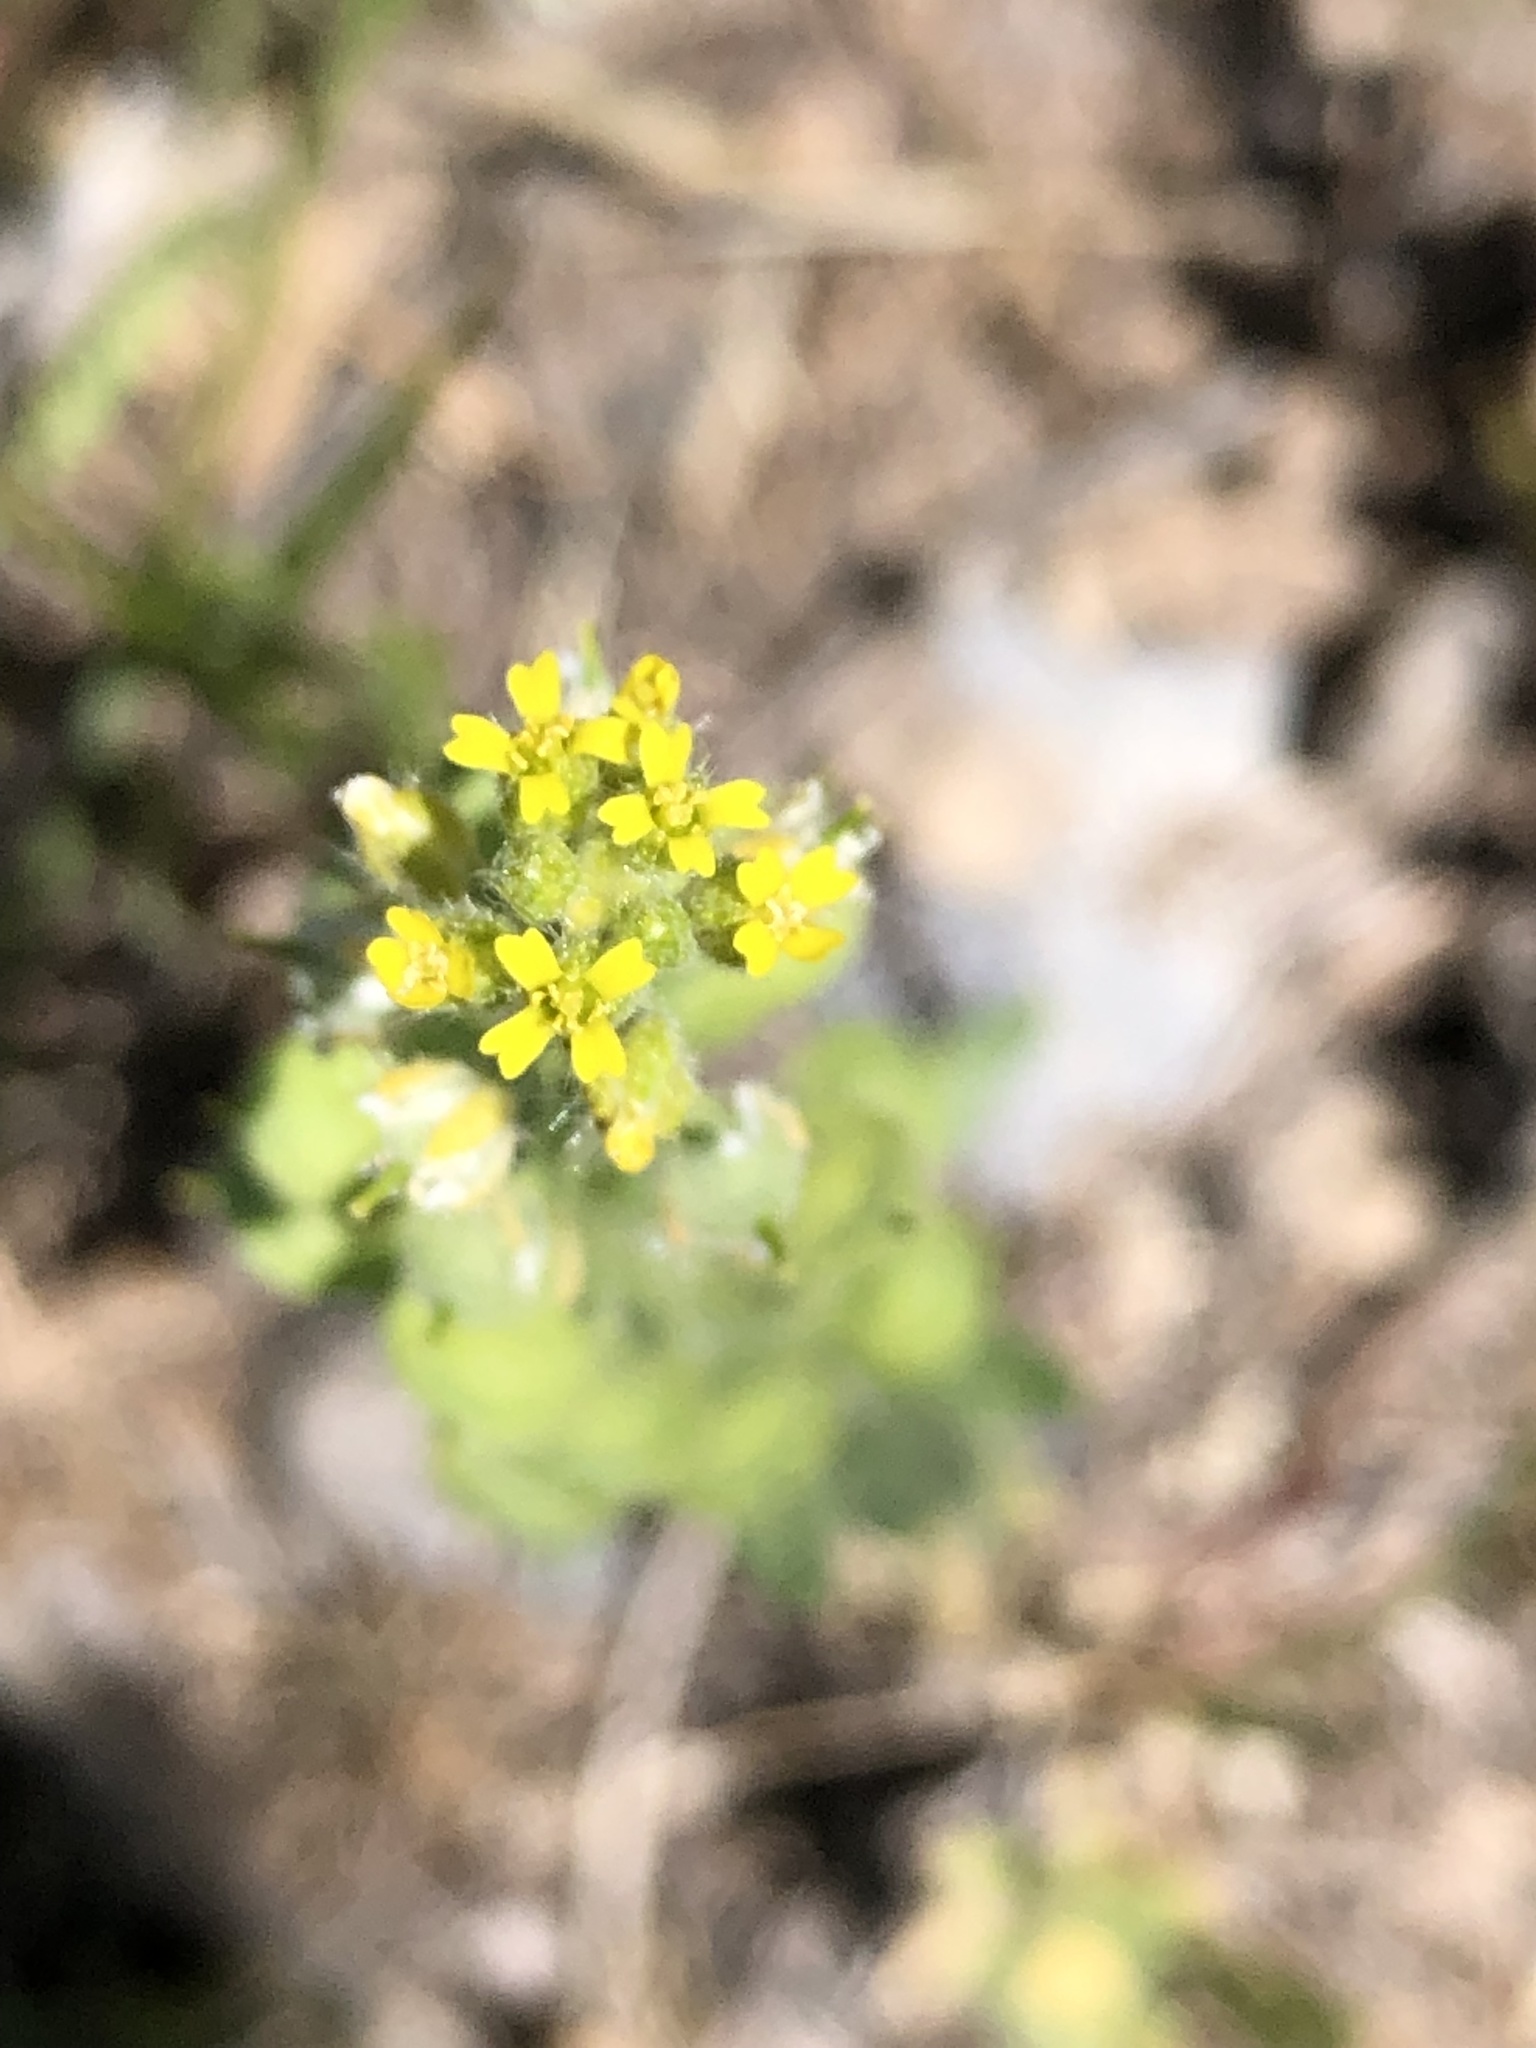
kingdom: Plantae
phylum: Tracheophyta
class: Magnoliopsida
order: Brassicales
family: Brassicaceae
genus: Alyssum
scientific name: Alyssum simplex
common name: Alyssum
